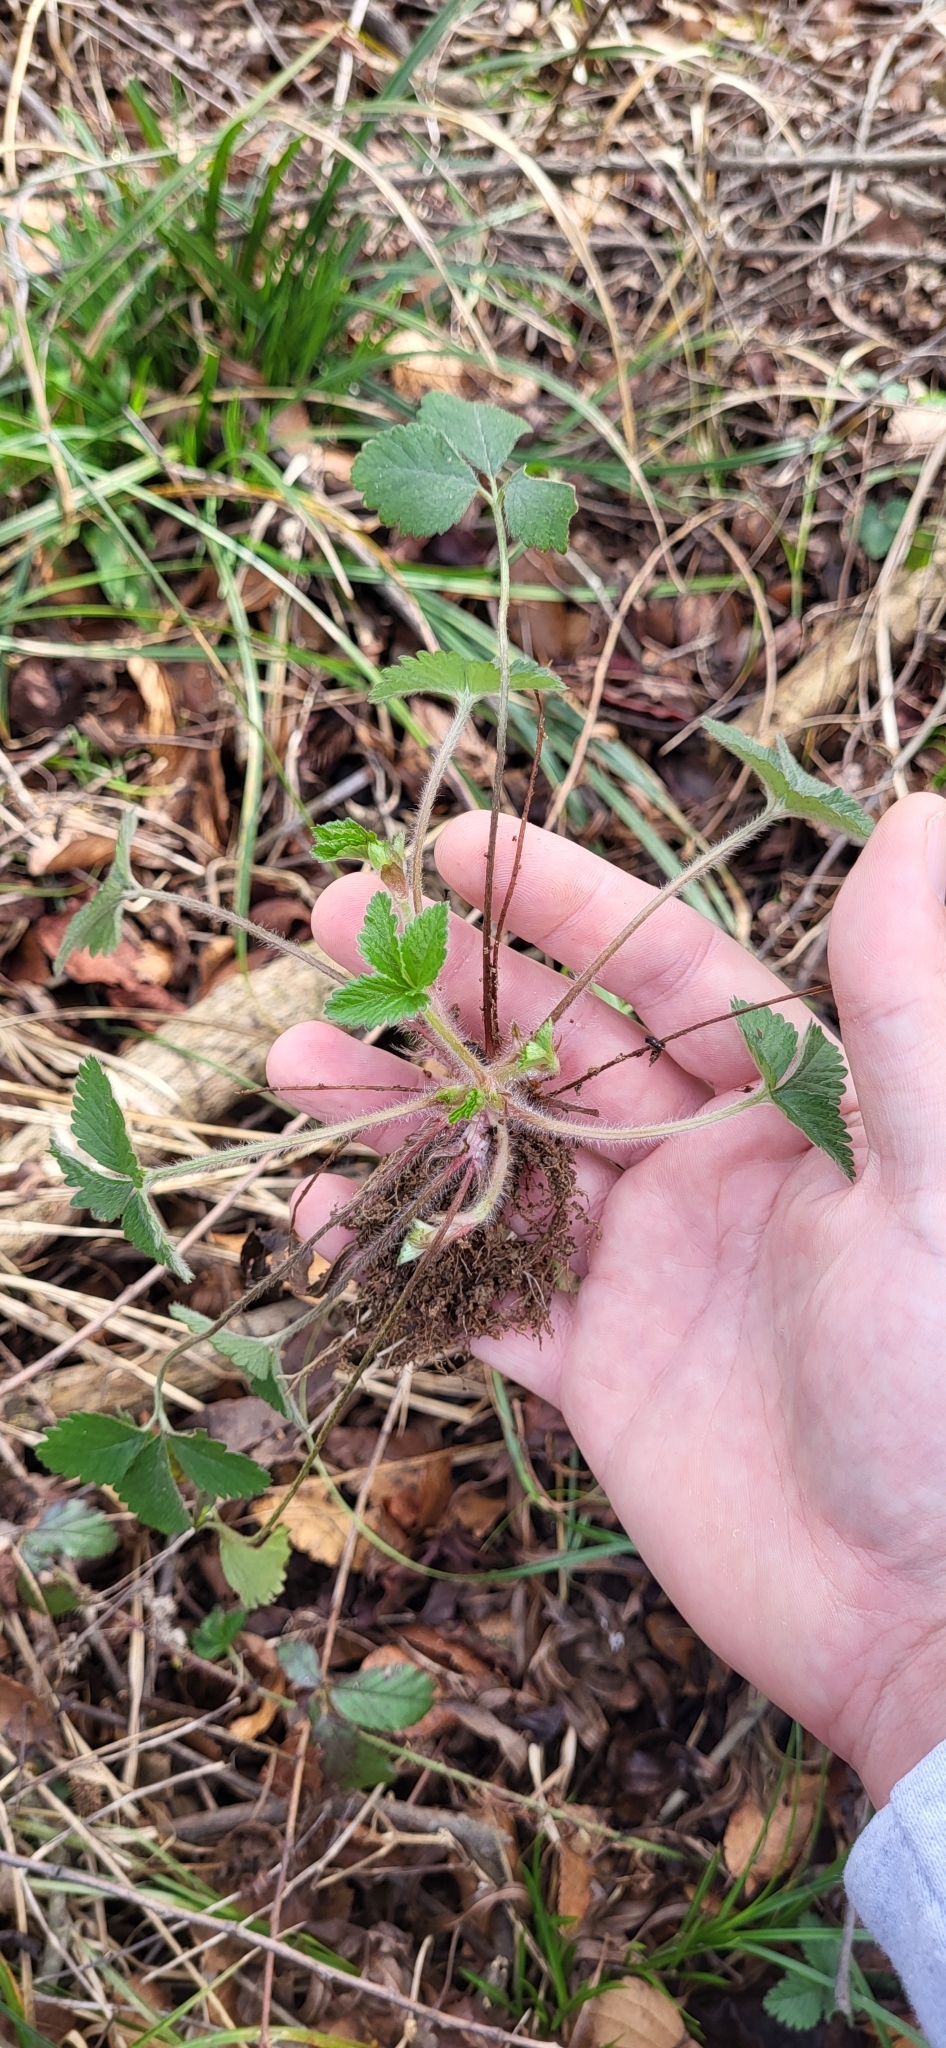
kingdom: Plantae
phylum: Tracheophyta
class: Magnoliopsida
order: Rosales
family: Rosaceae
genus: Potentilla
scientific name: Potentilla indica
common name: Yellow-flowered strawberry
